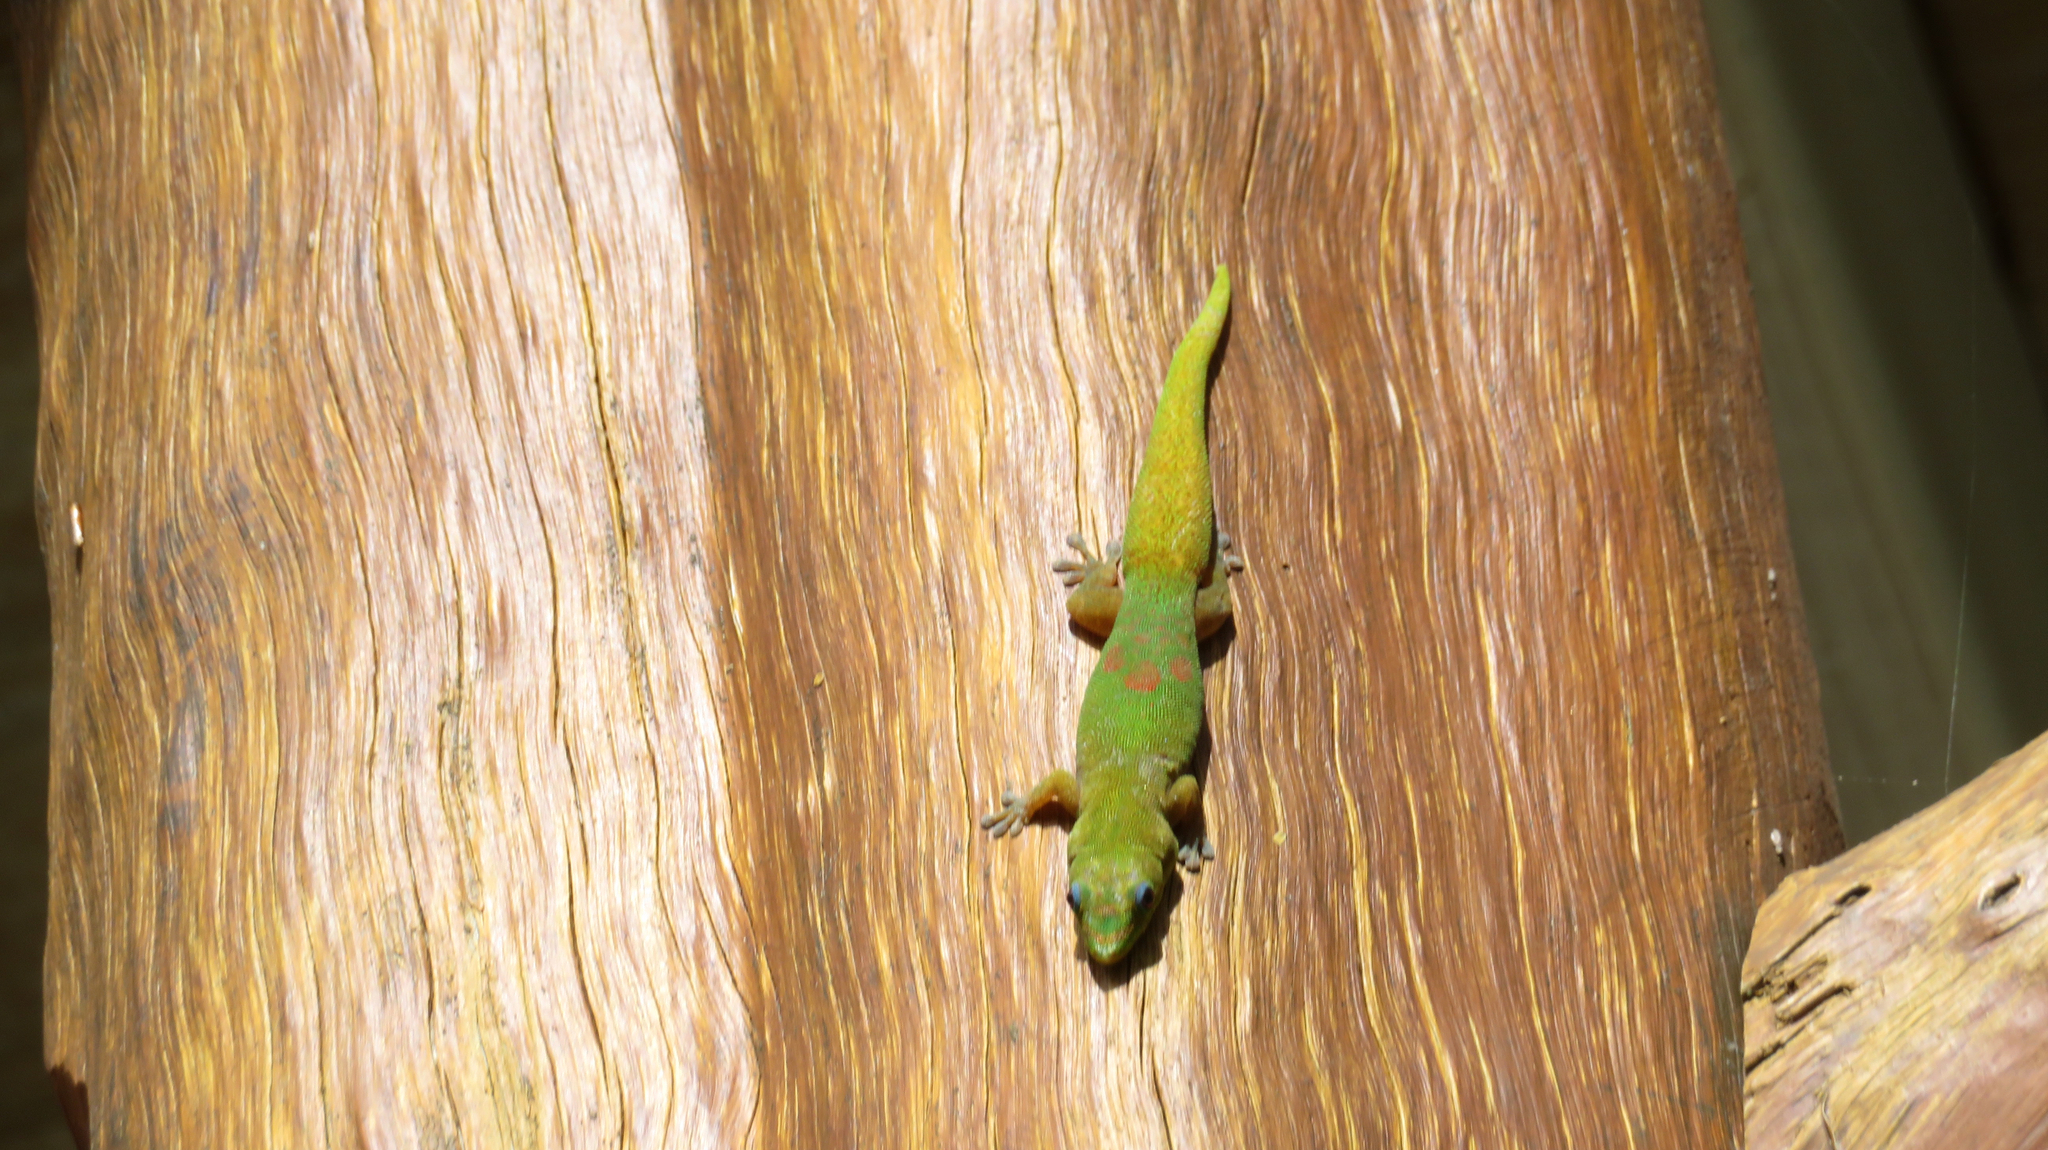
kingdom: Animalia
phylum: Chordata
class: Squamata
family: Gekkonidae
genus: Phelsuma
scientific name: Phelsuma laticauda
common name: Gold dust day gecko
